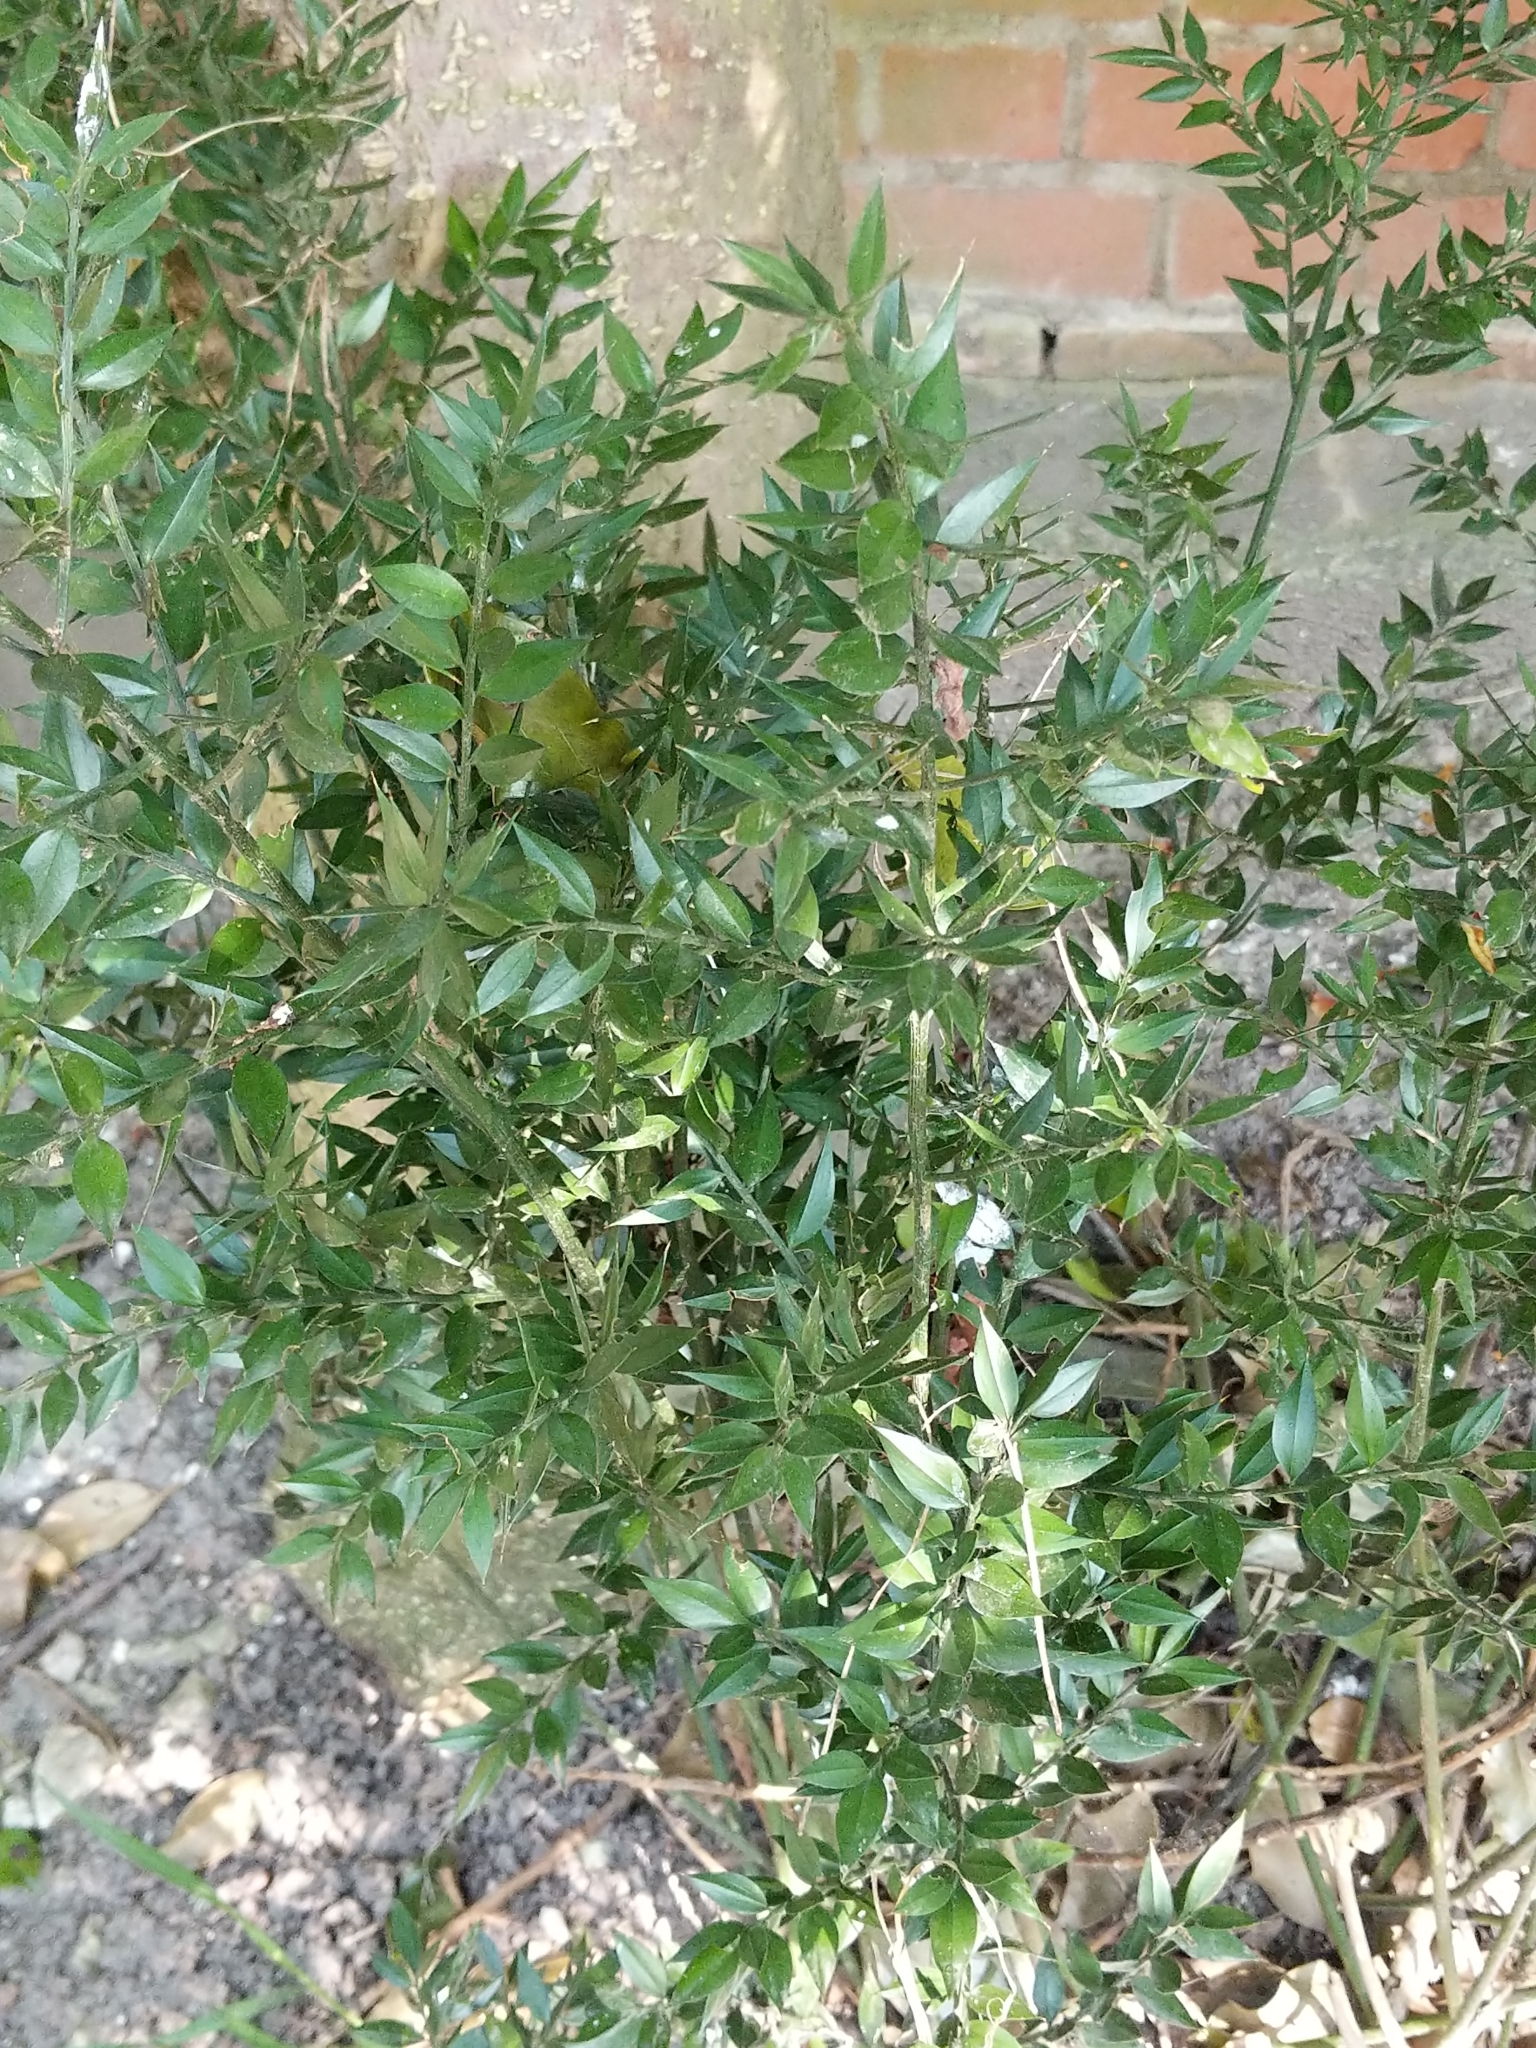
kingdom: Plantae
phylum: Tracheophyta
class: Liliopsida
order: Asparagales
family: Asparagaceae
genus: Ruscus
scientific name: Ruscus aculeatus
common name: Butcher's-broom
